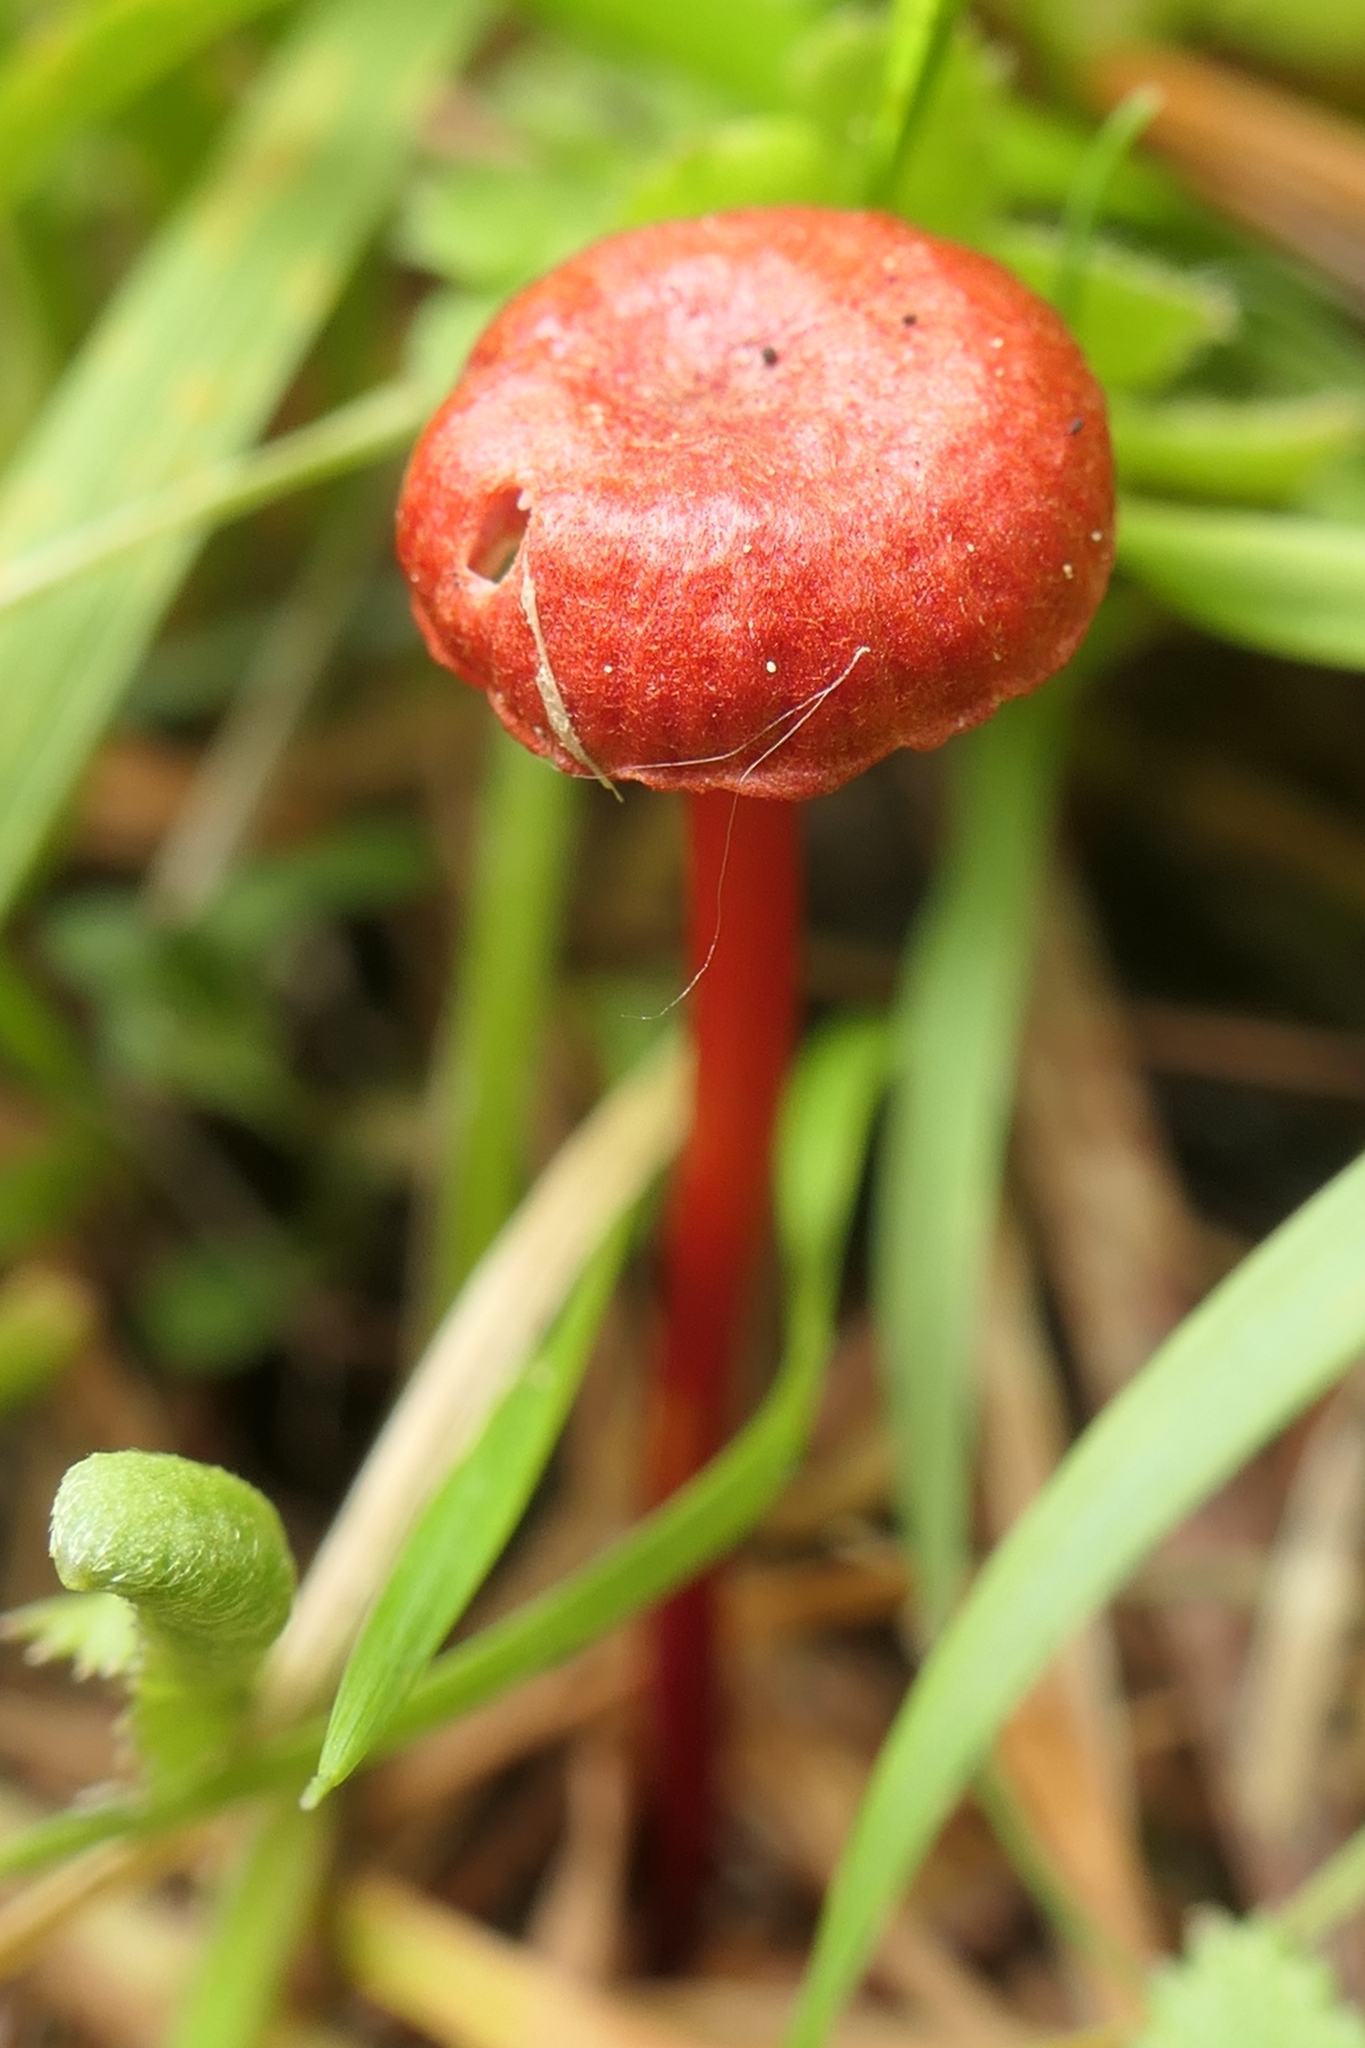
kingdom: Fungi
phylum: Basidiomycota
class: Agaricomycetes
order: Agaricales
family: Mycenaceae
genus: Cruentomycena
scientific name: Cruentomycena viscidocruenta
